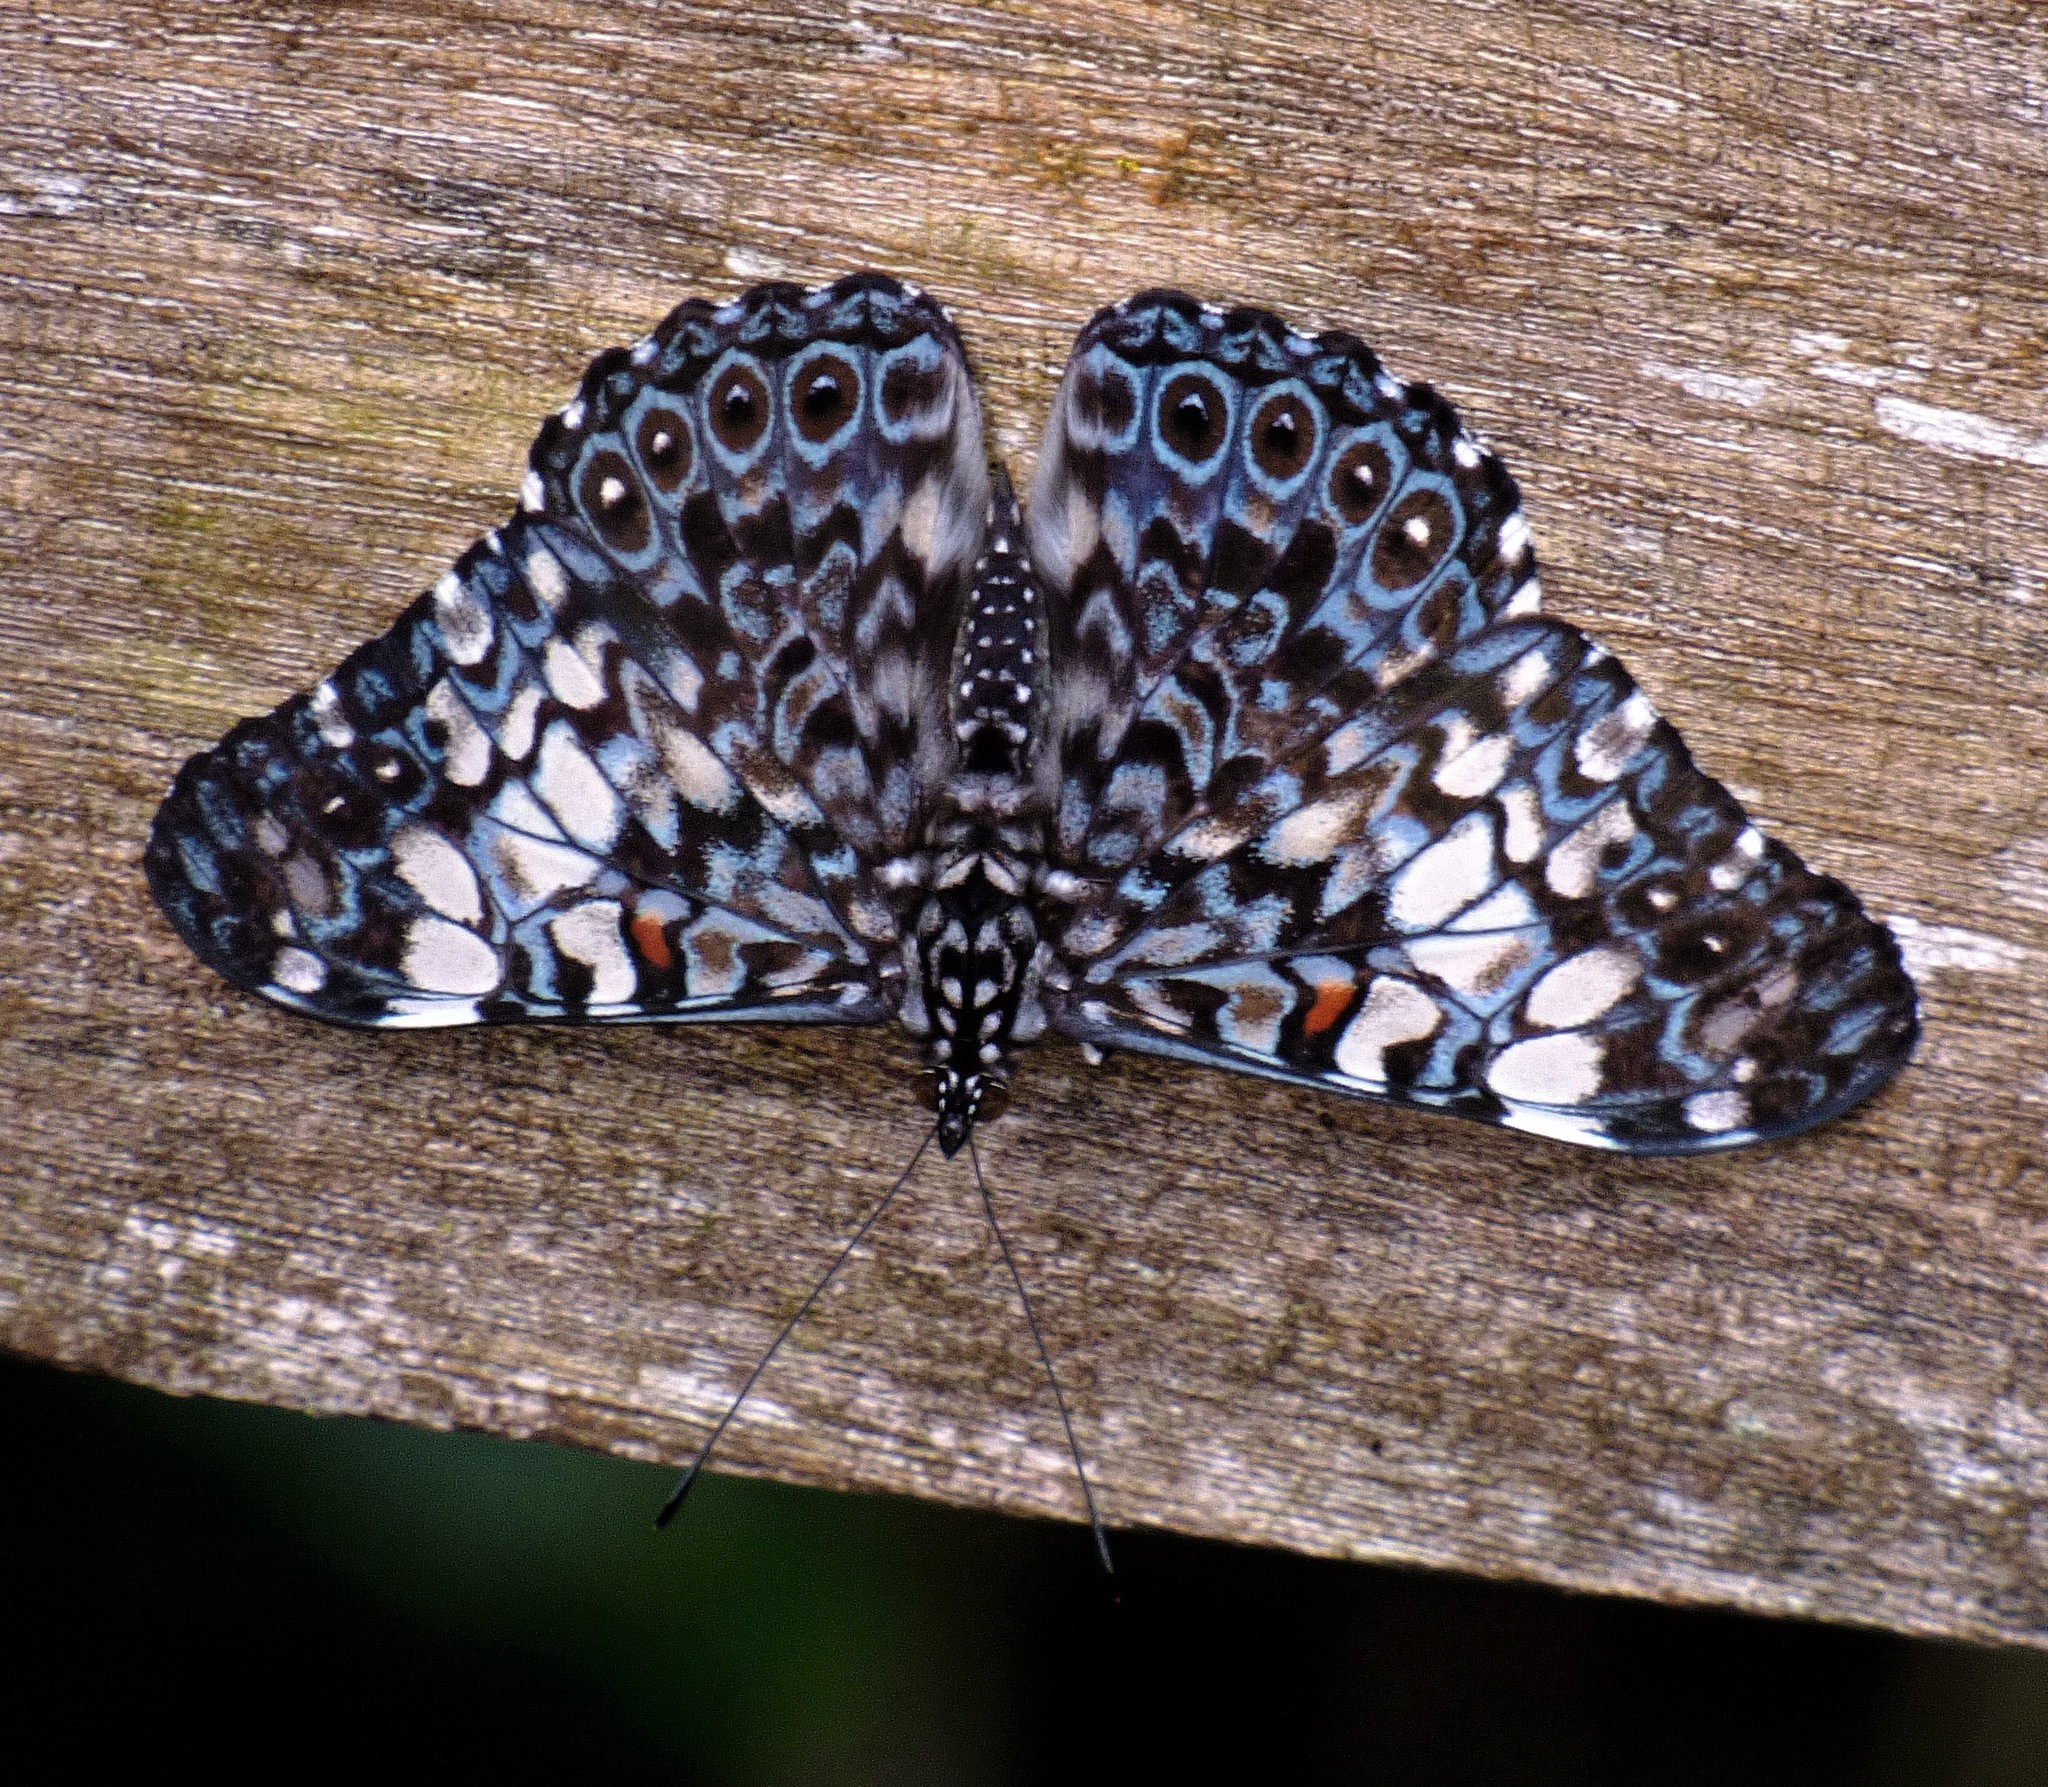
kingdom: Animalia
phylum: Arthropoda
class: Insecta
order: Lepidoptera
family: Nymphalidae
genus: Hamadryas
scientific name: Hamadryas fornax
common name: Orange cracker
